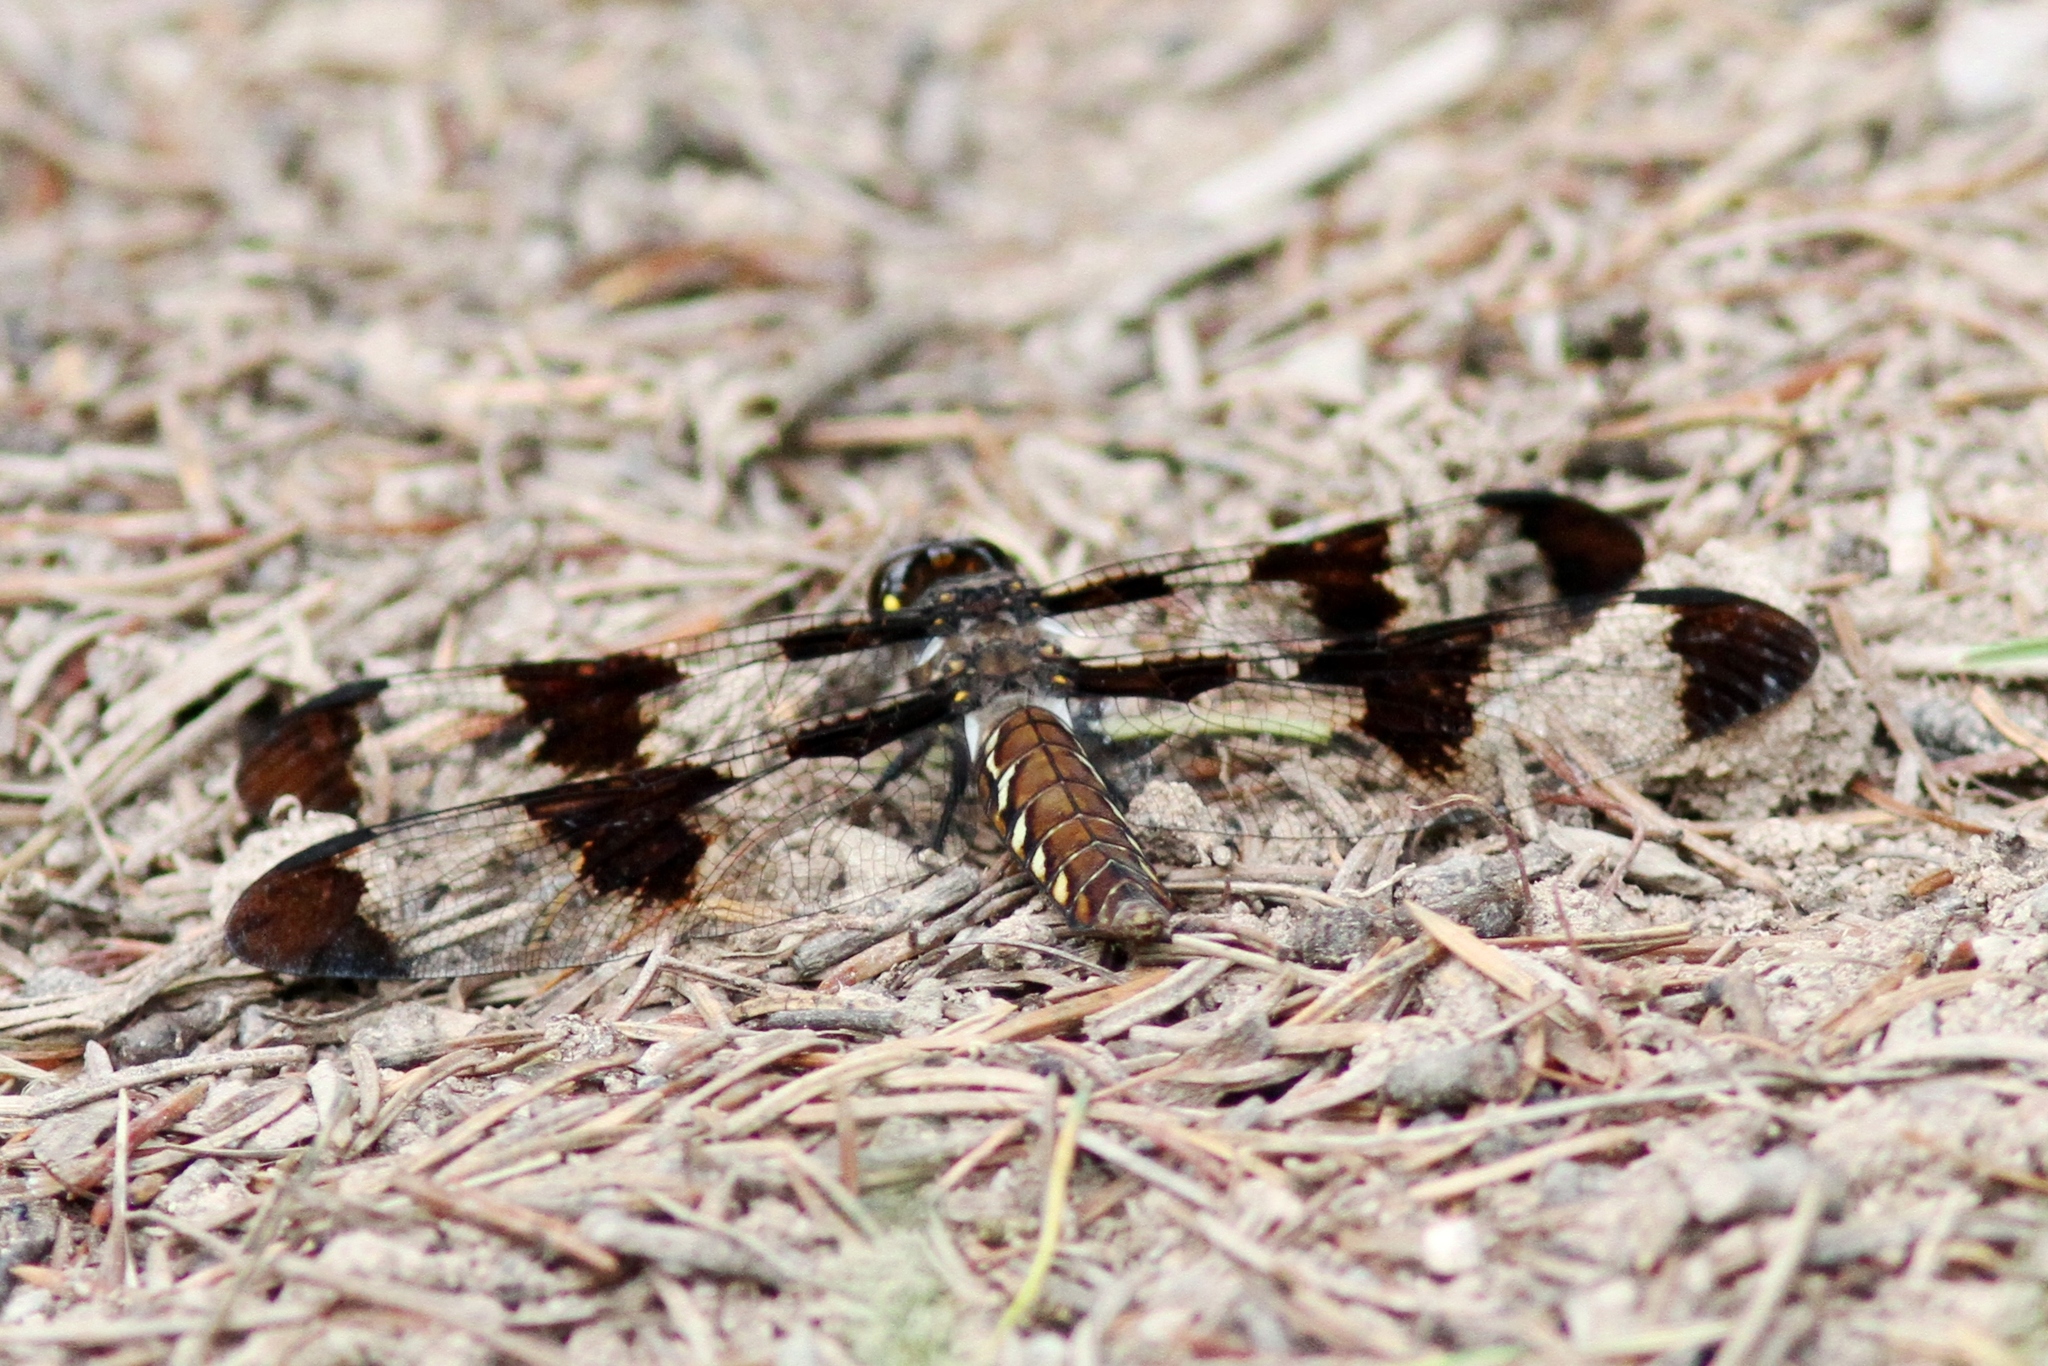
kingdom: Animalia
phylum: Arthropoda
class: Insecta
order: Odonata
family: Libellulidae
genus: Plathemis
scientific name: Plathemis lydia
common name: Common whitetail
